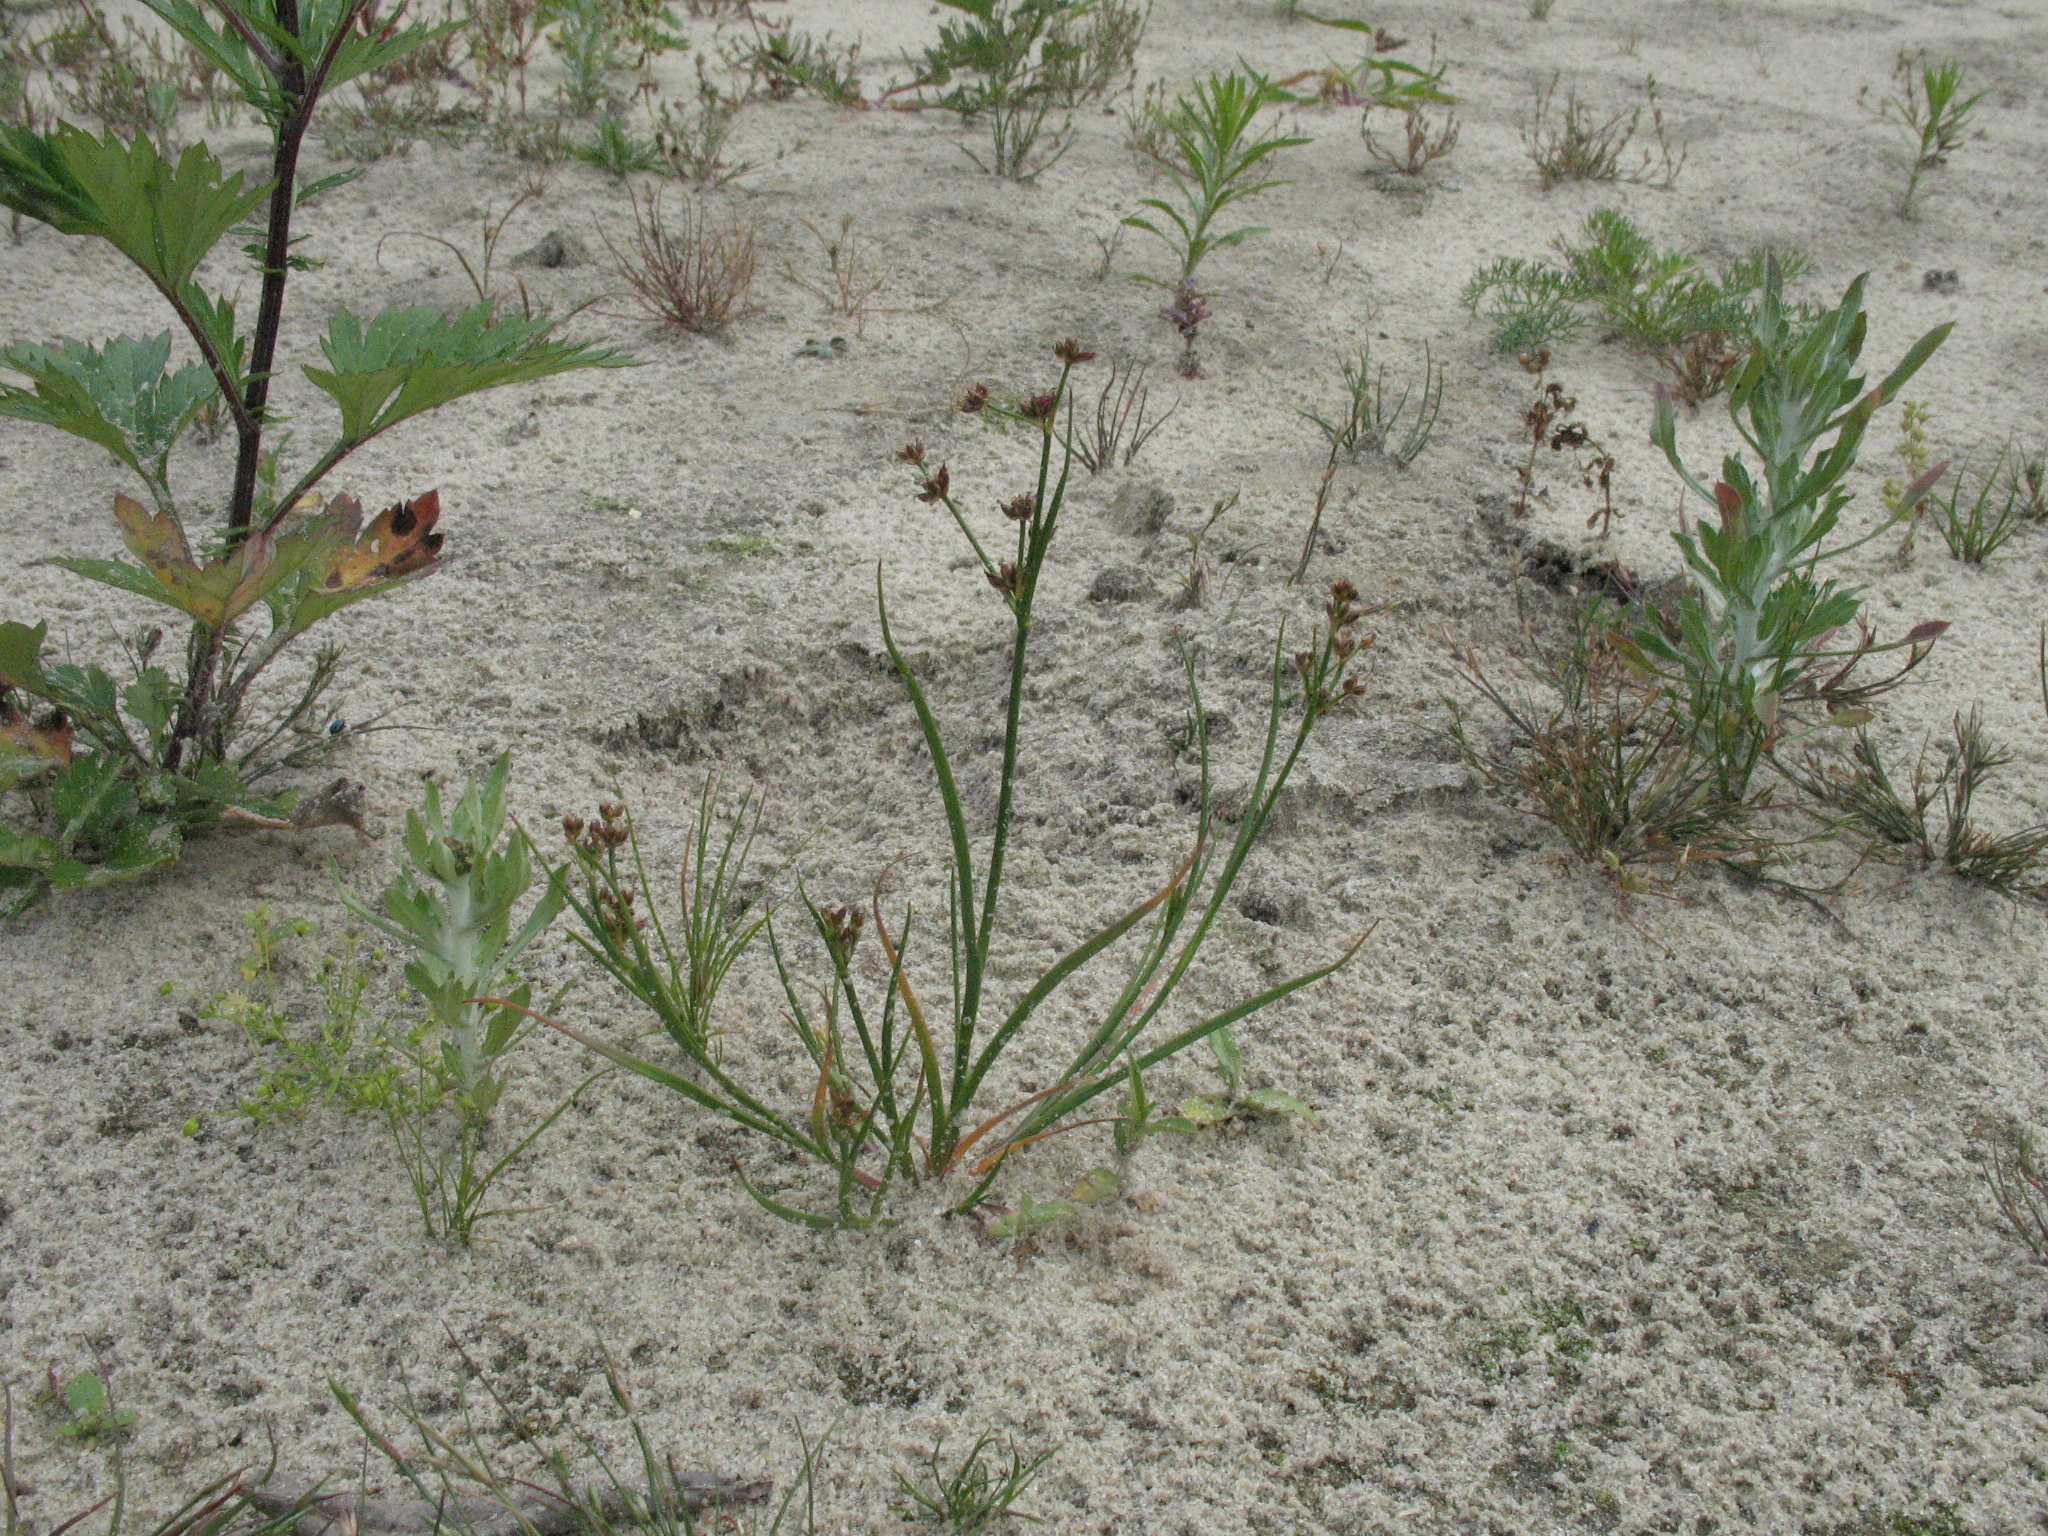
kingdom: Plantae
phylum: Tracheophyta
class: Liliopsida
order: Poales
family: Juncaceae
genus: Juncus
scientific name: Juncus articulatus
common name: Jointed rush
